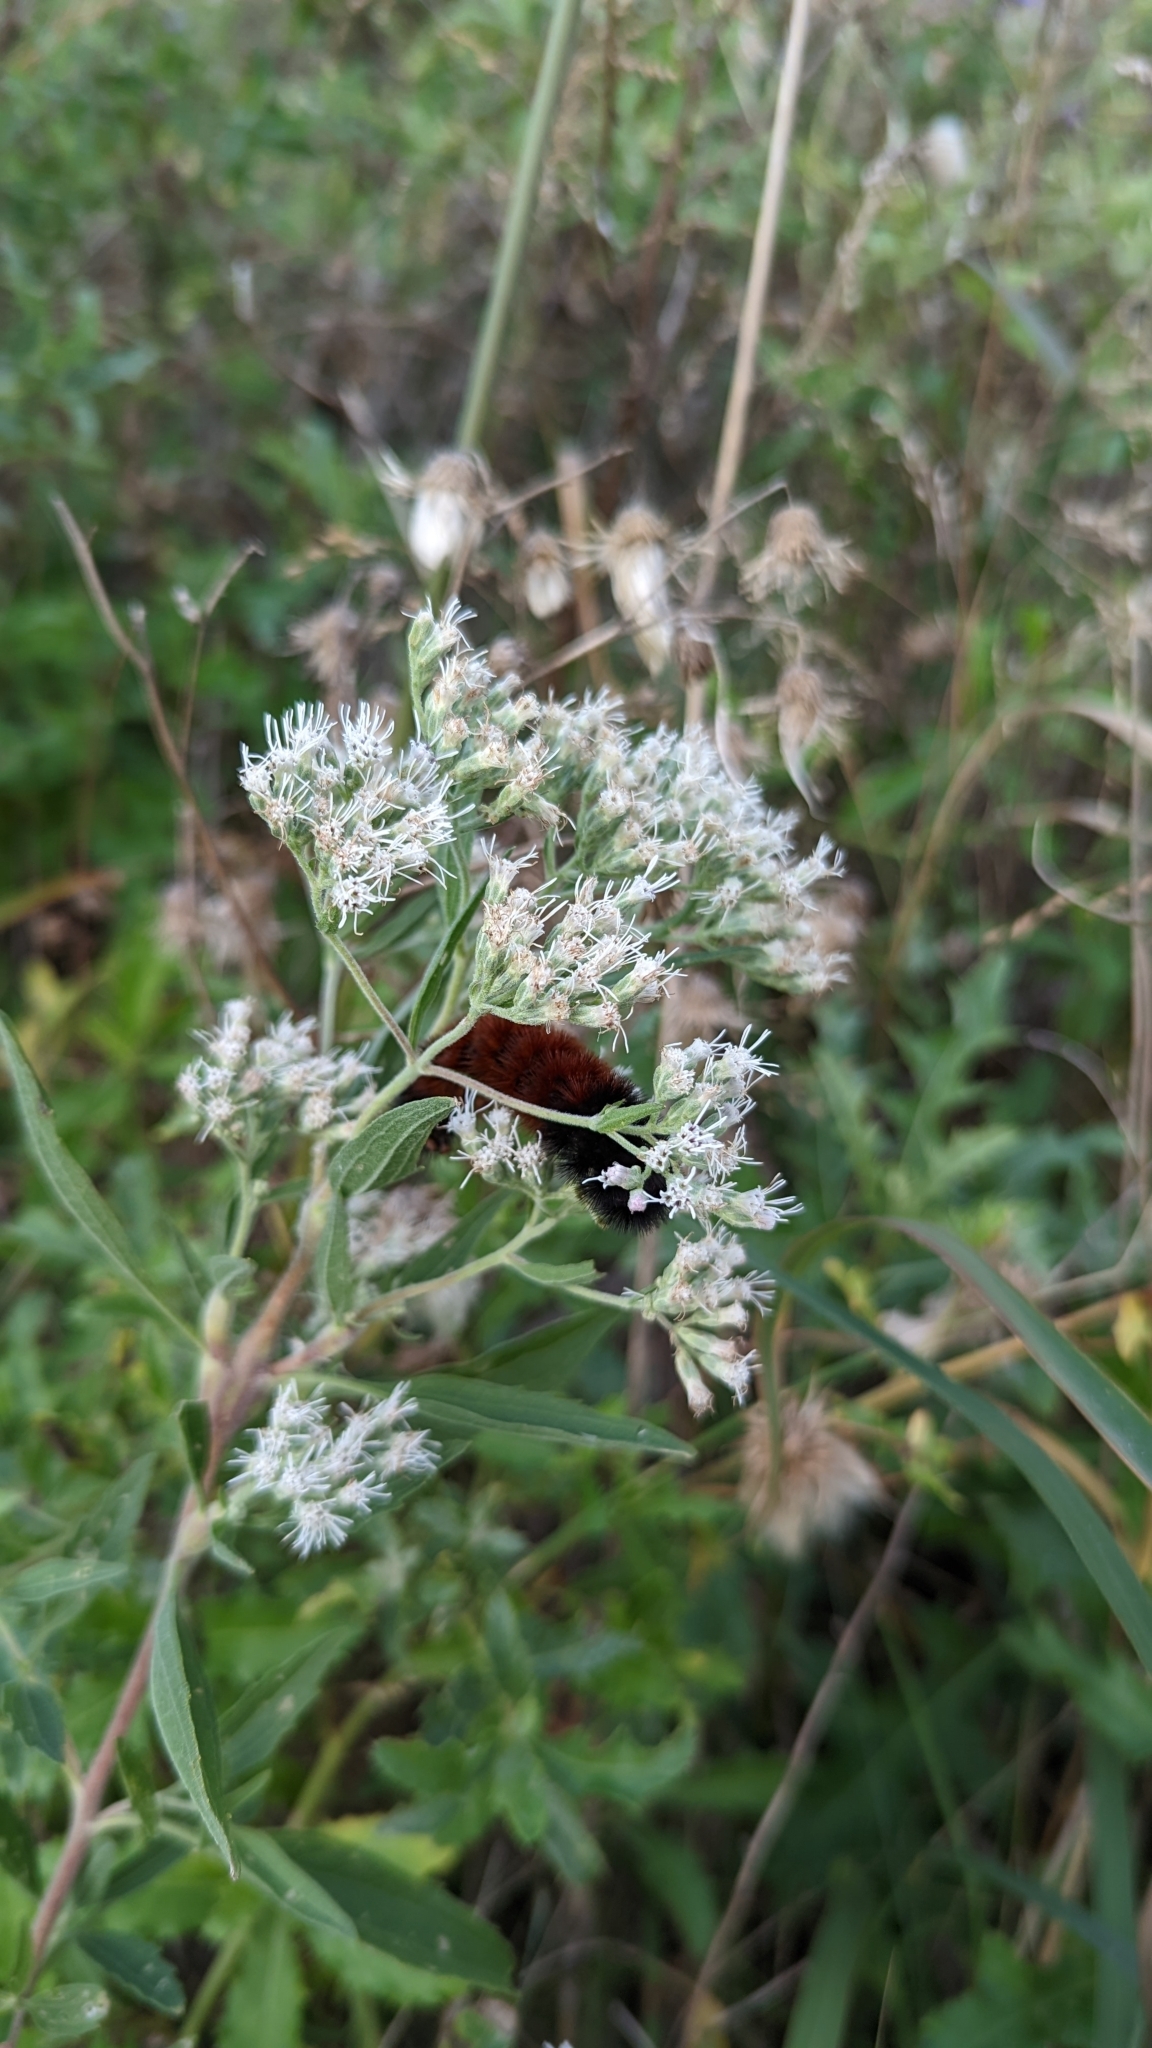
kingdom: Animalia
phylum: Arthropoda
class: Insecta
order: Lepidoptera
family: Erebidae
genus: Pyrrharctia
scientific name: Pyrrharctia isabella
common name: Isabella tiger moth
